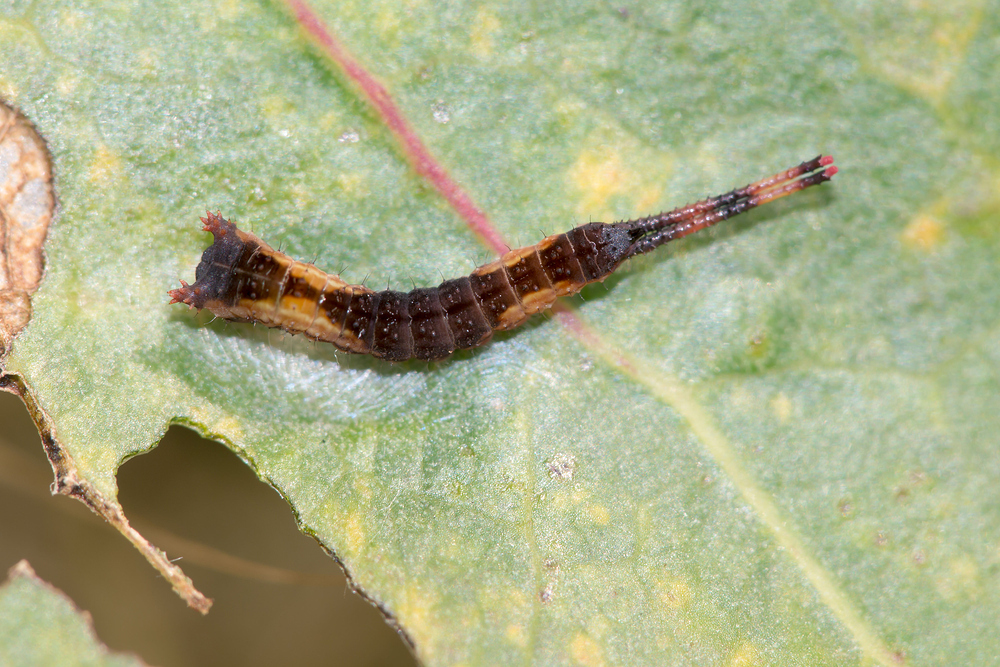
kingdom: Animalia
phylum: Arthropoda
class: Insecta
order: Lepidoptera
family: Notodontidae
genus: Cerura
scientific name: Cerura vinula
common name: Puss moth
